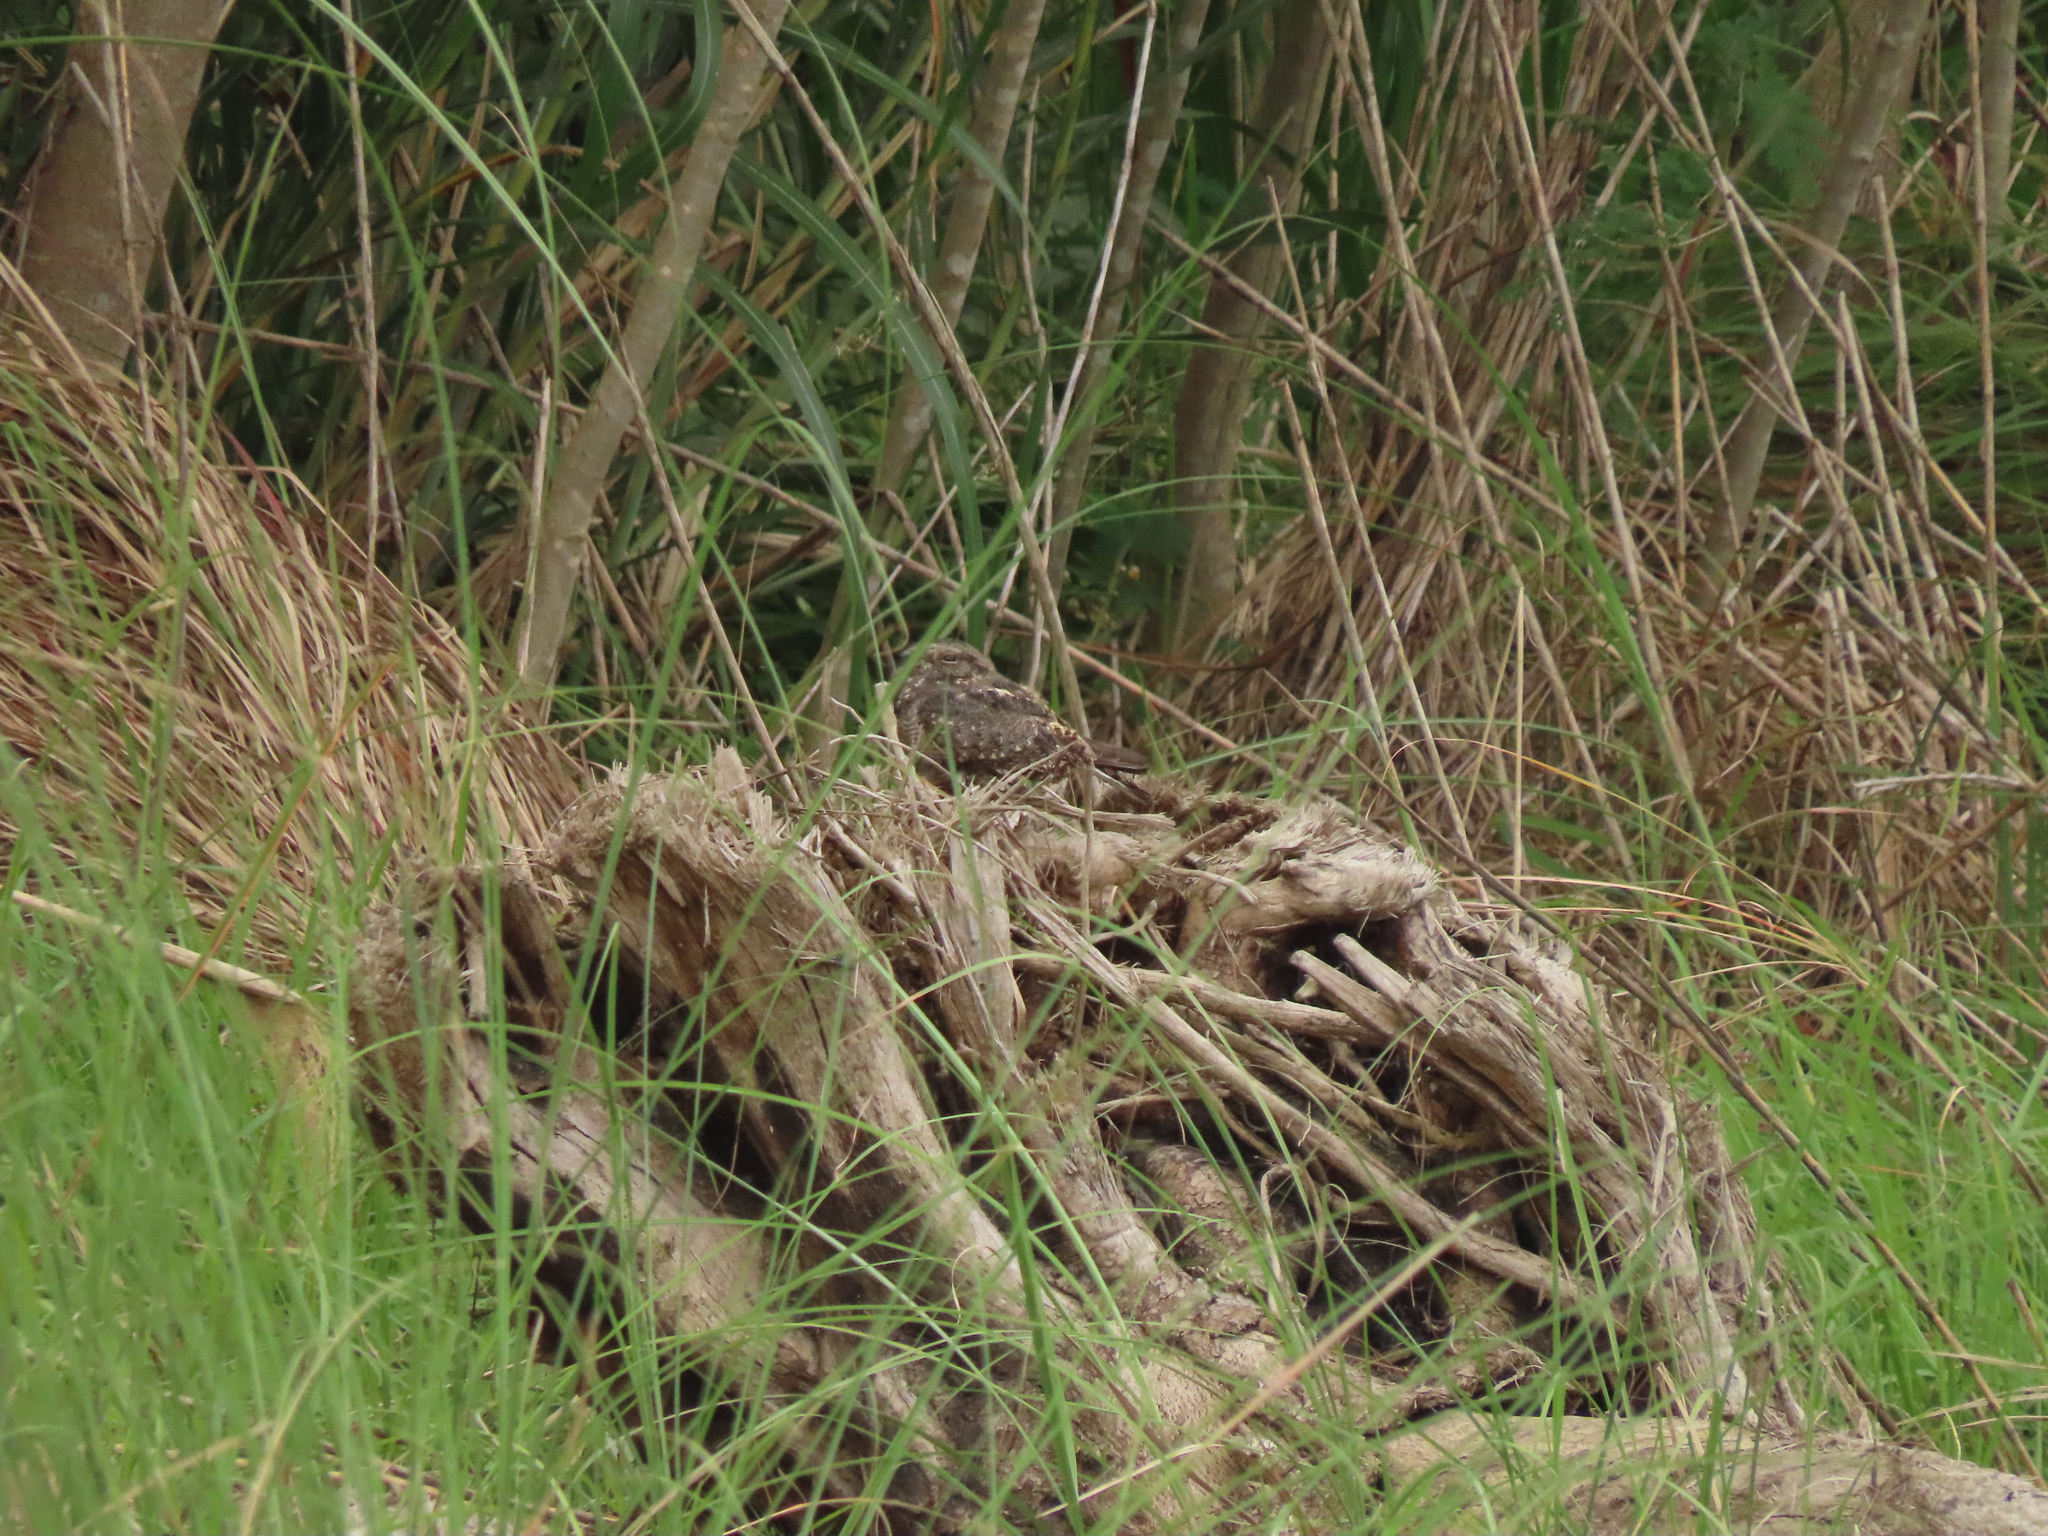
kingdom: Animalia
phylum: Chordata
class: Aves
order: Caprimulgiformes
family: Caprimulgidae
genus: Caprimulgus
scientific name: Caprimulgus affinis
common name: Savanna nightjar
